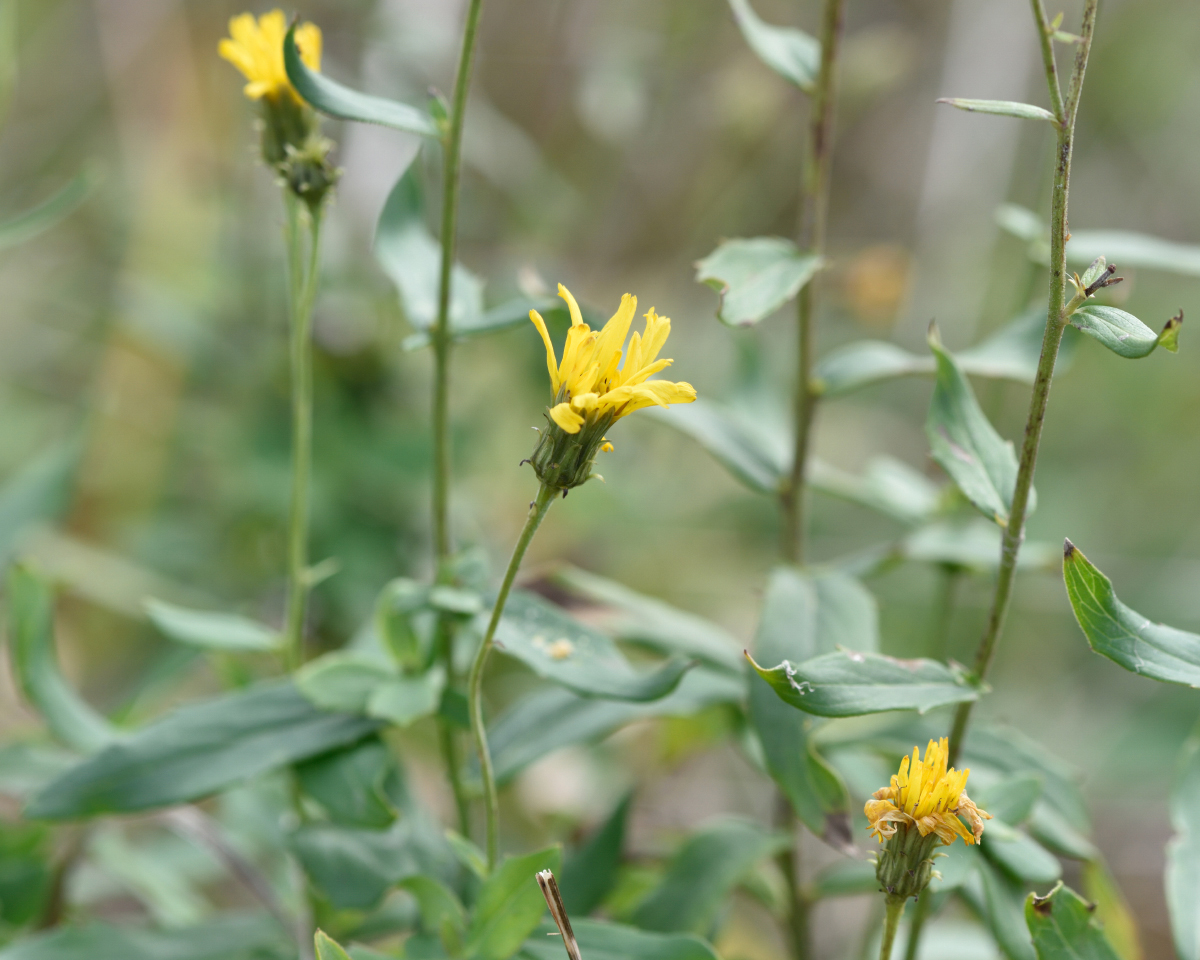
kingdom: Plantae
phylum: Tracheophyta
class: Magnoliopsida
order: Asterales
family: Asteraceae
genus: Hieracium
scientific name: Hieracium umbellatum
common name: Northern hawkweed
